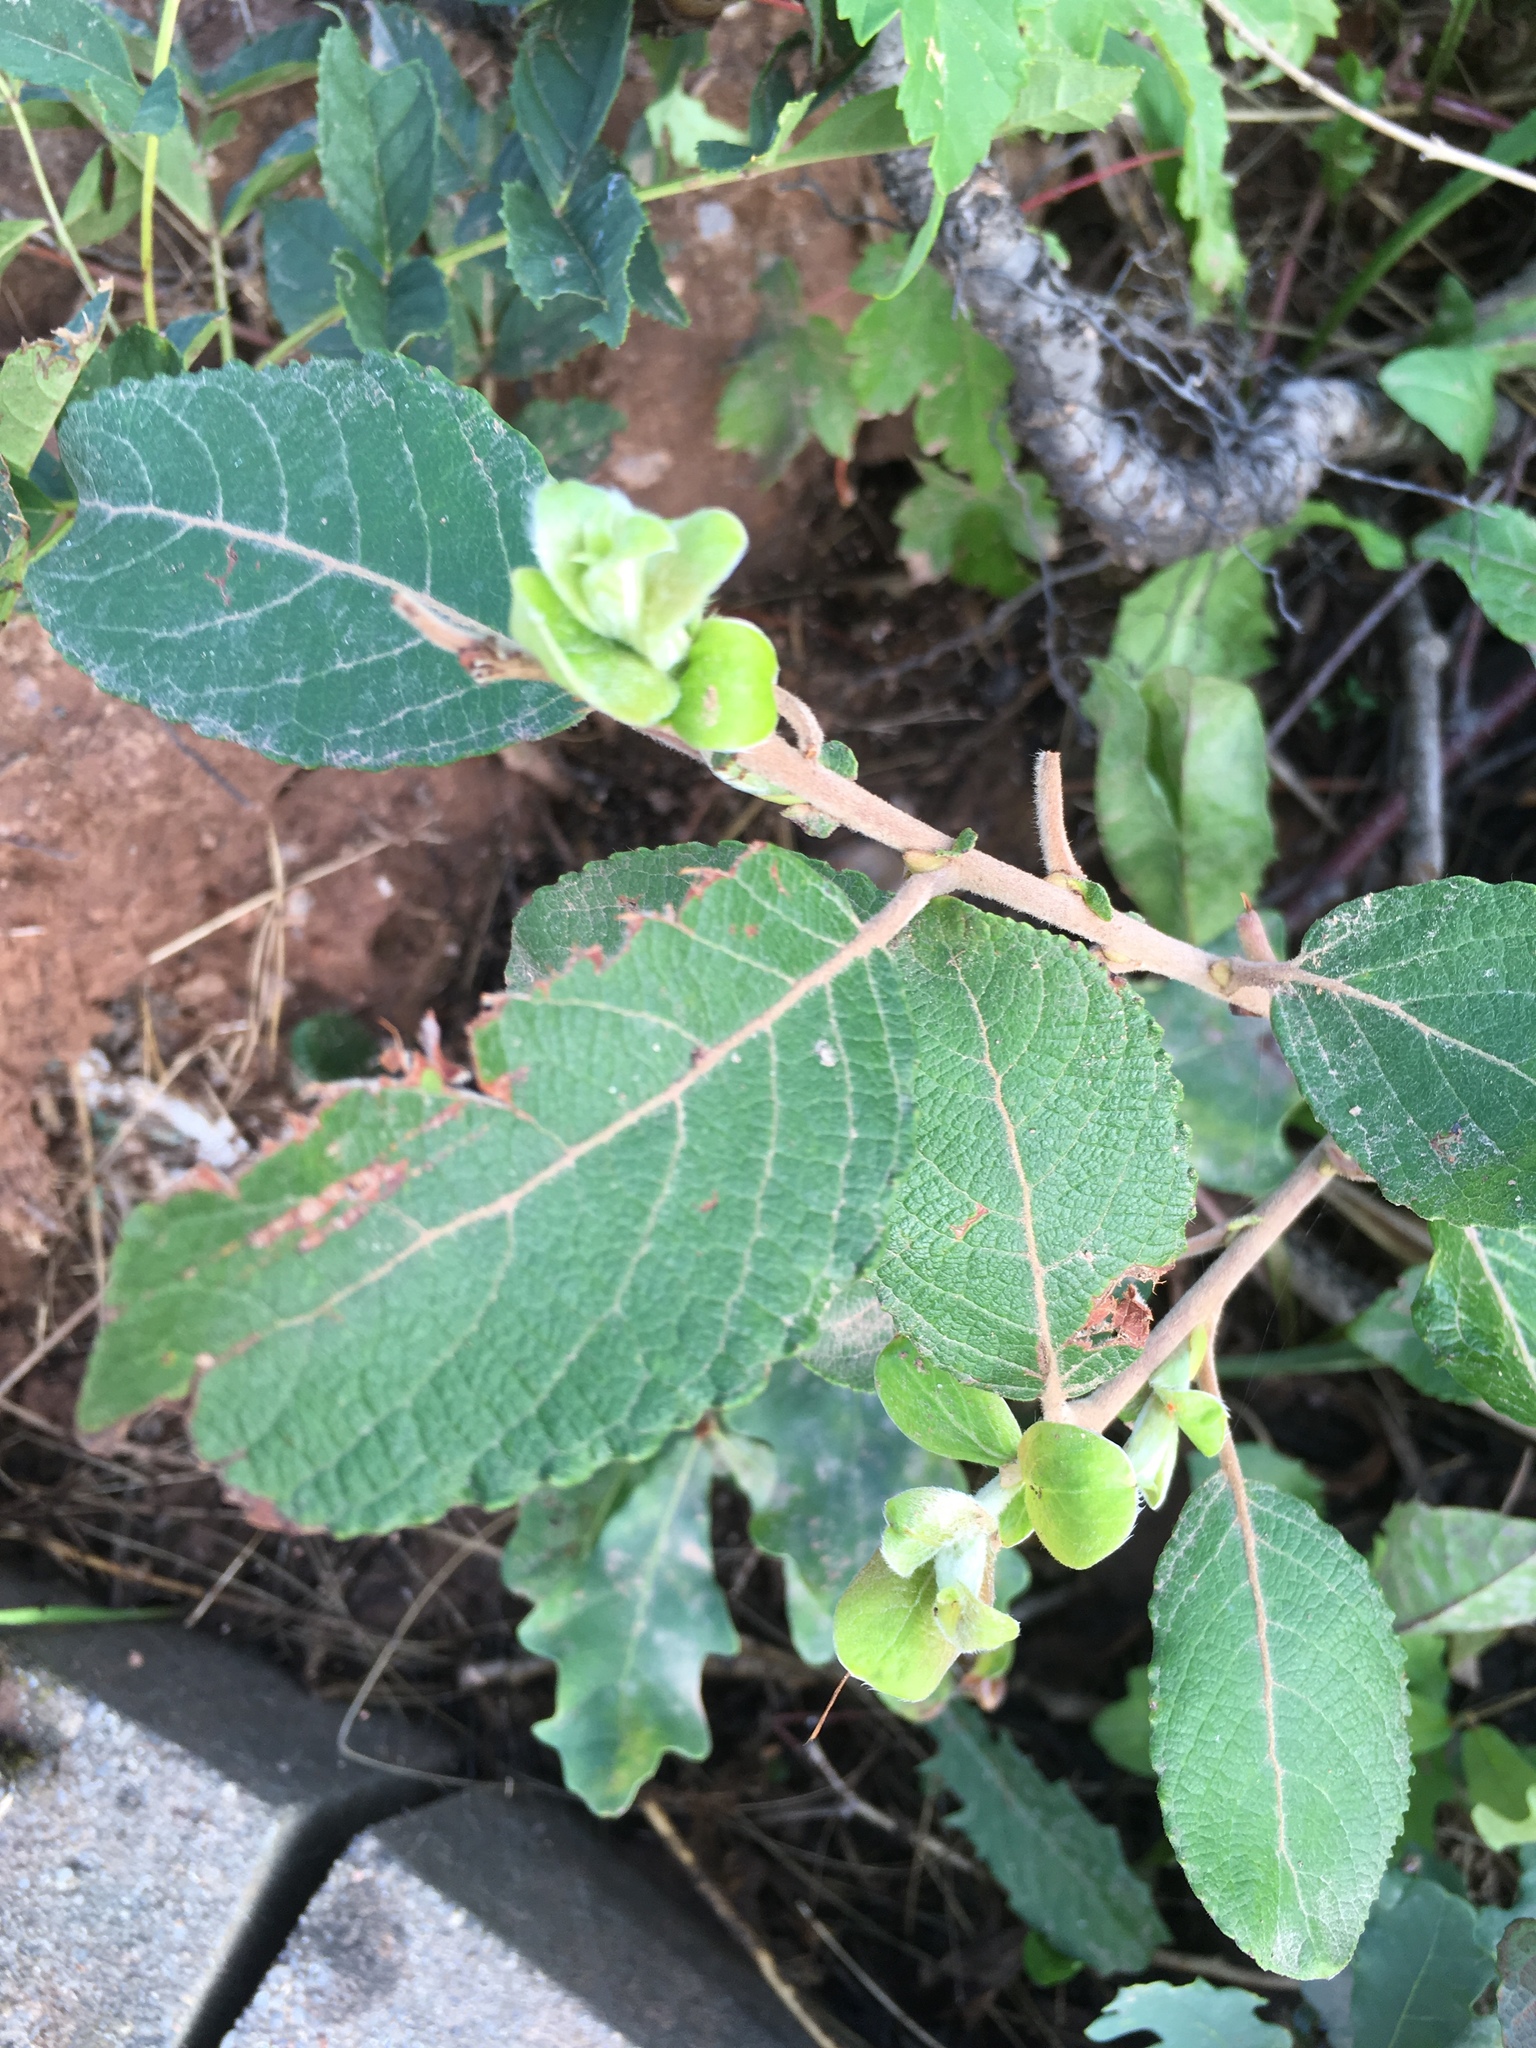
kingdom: Plantae
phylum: Tracheophyta
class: Magnoliopsida
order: Dipsacales
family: Caprifoliaceae
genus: Symphoricarpos
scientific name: Symphoricarpos albus
